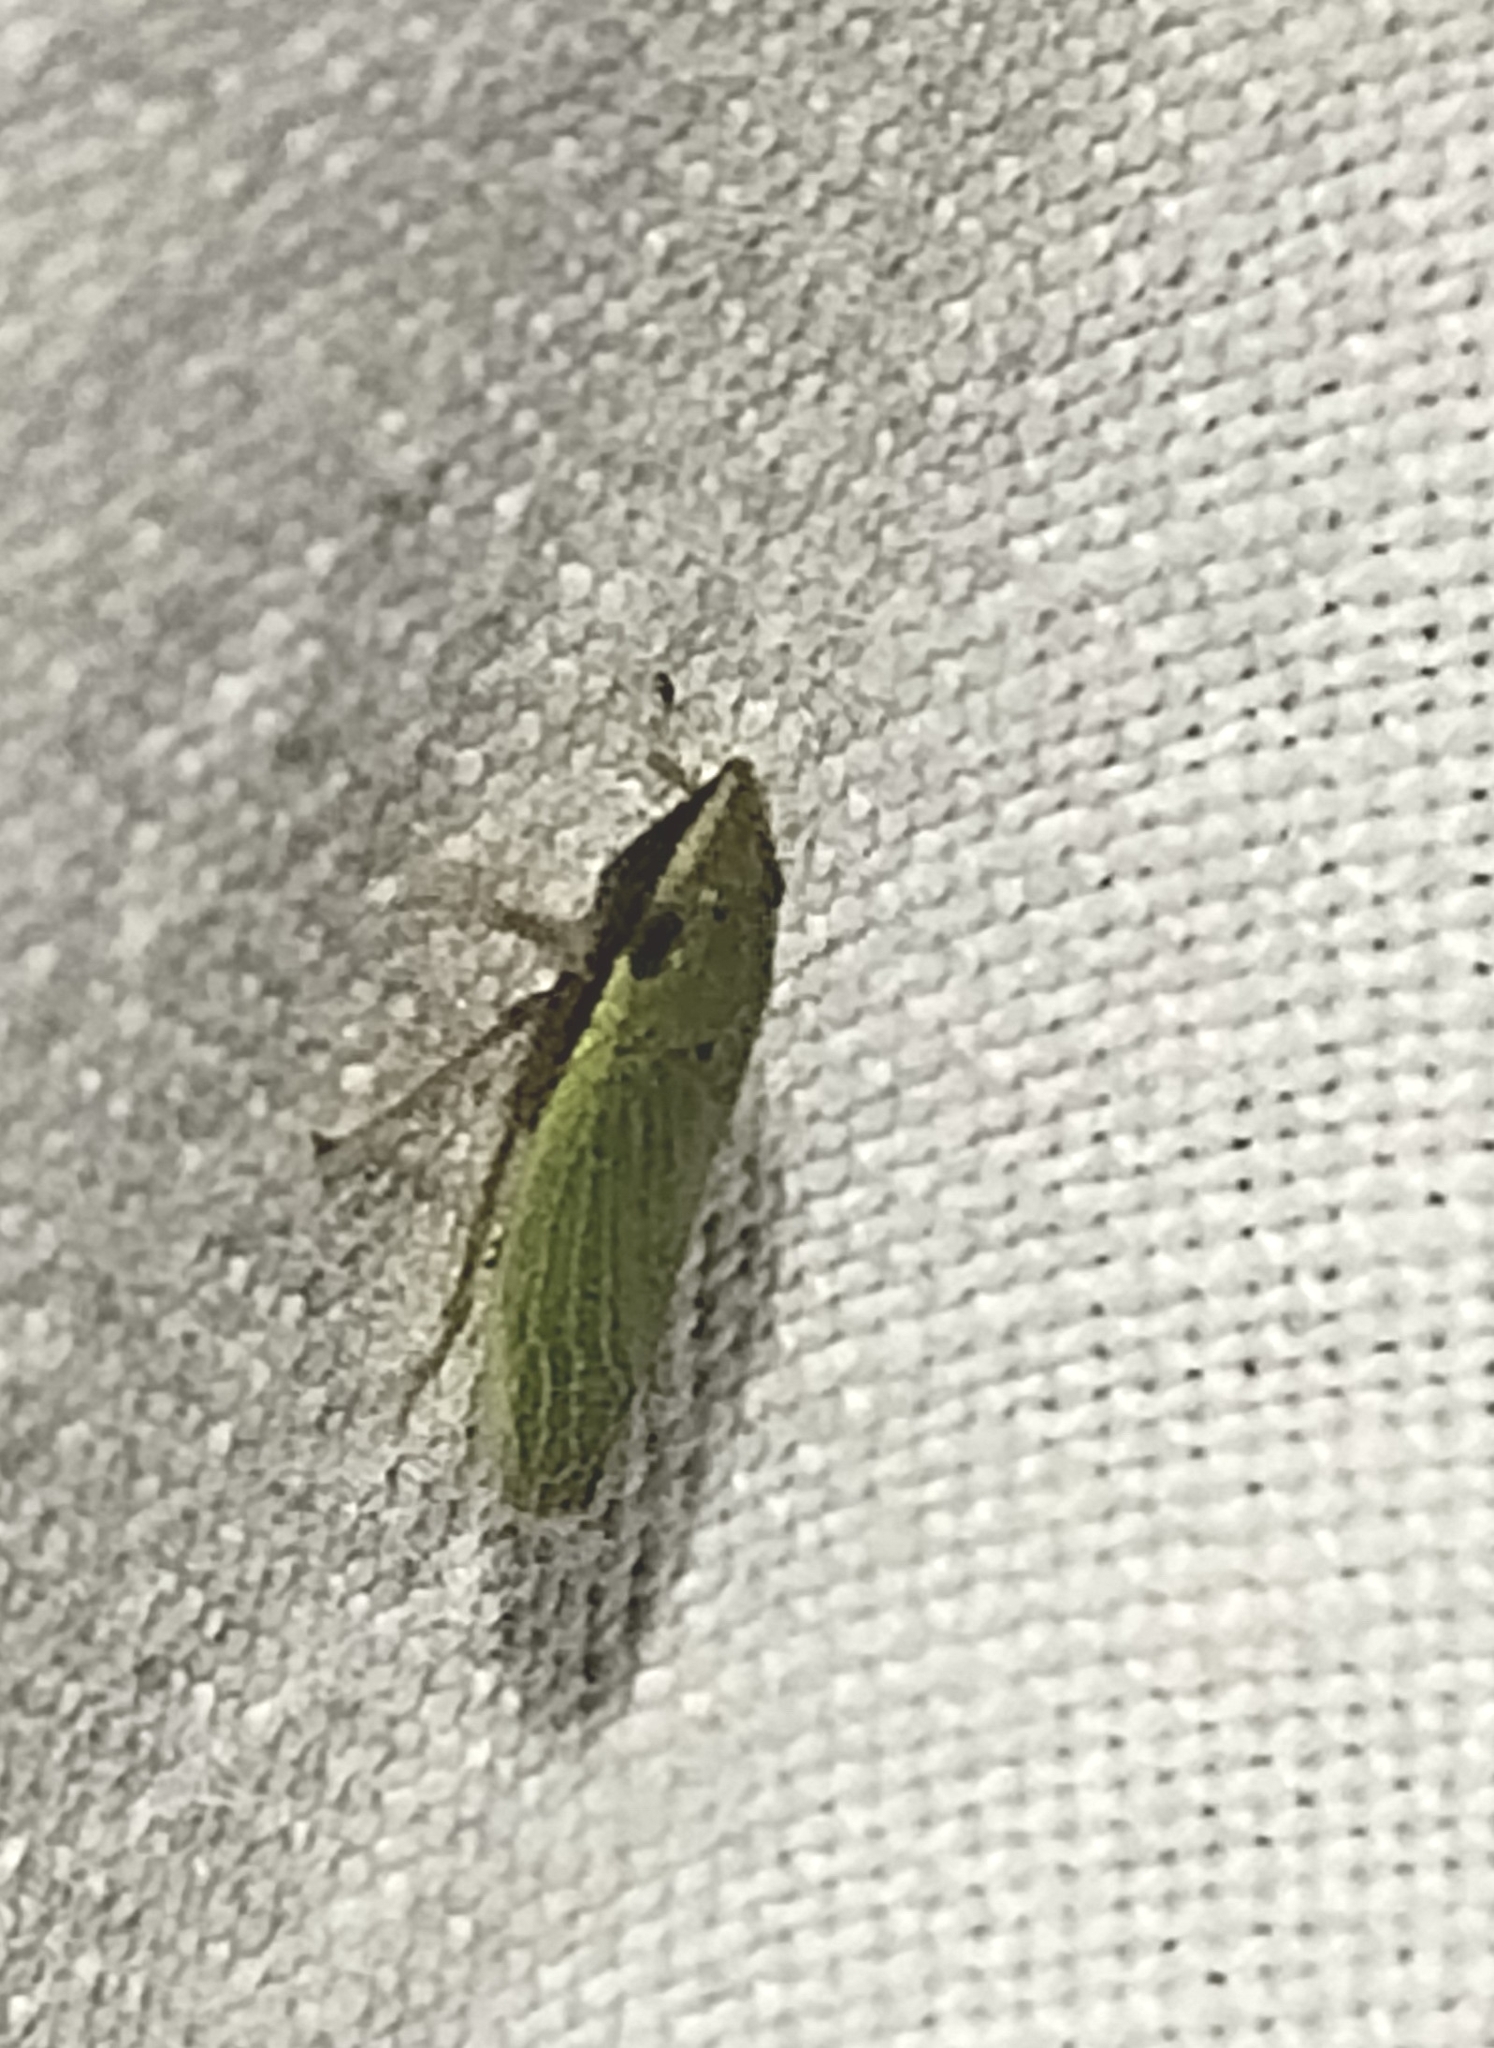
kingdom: Animalia
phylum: Arthropoda
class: Insecta
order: Hemiptera
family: Cicadellidae
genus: Draeculacephala
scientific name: Draeculacephala balli
